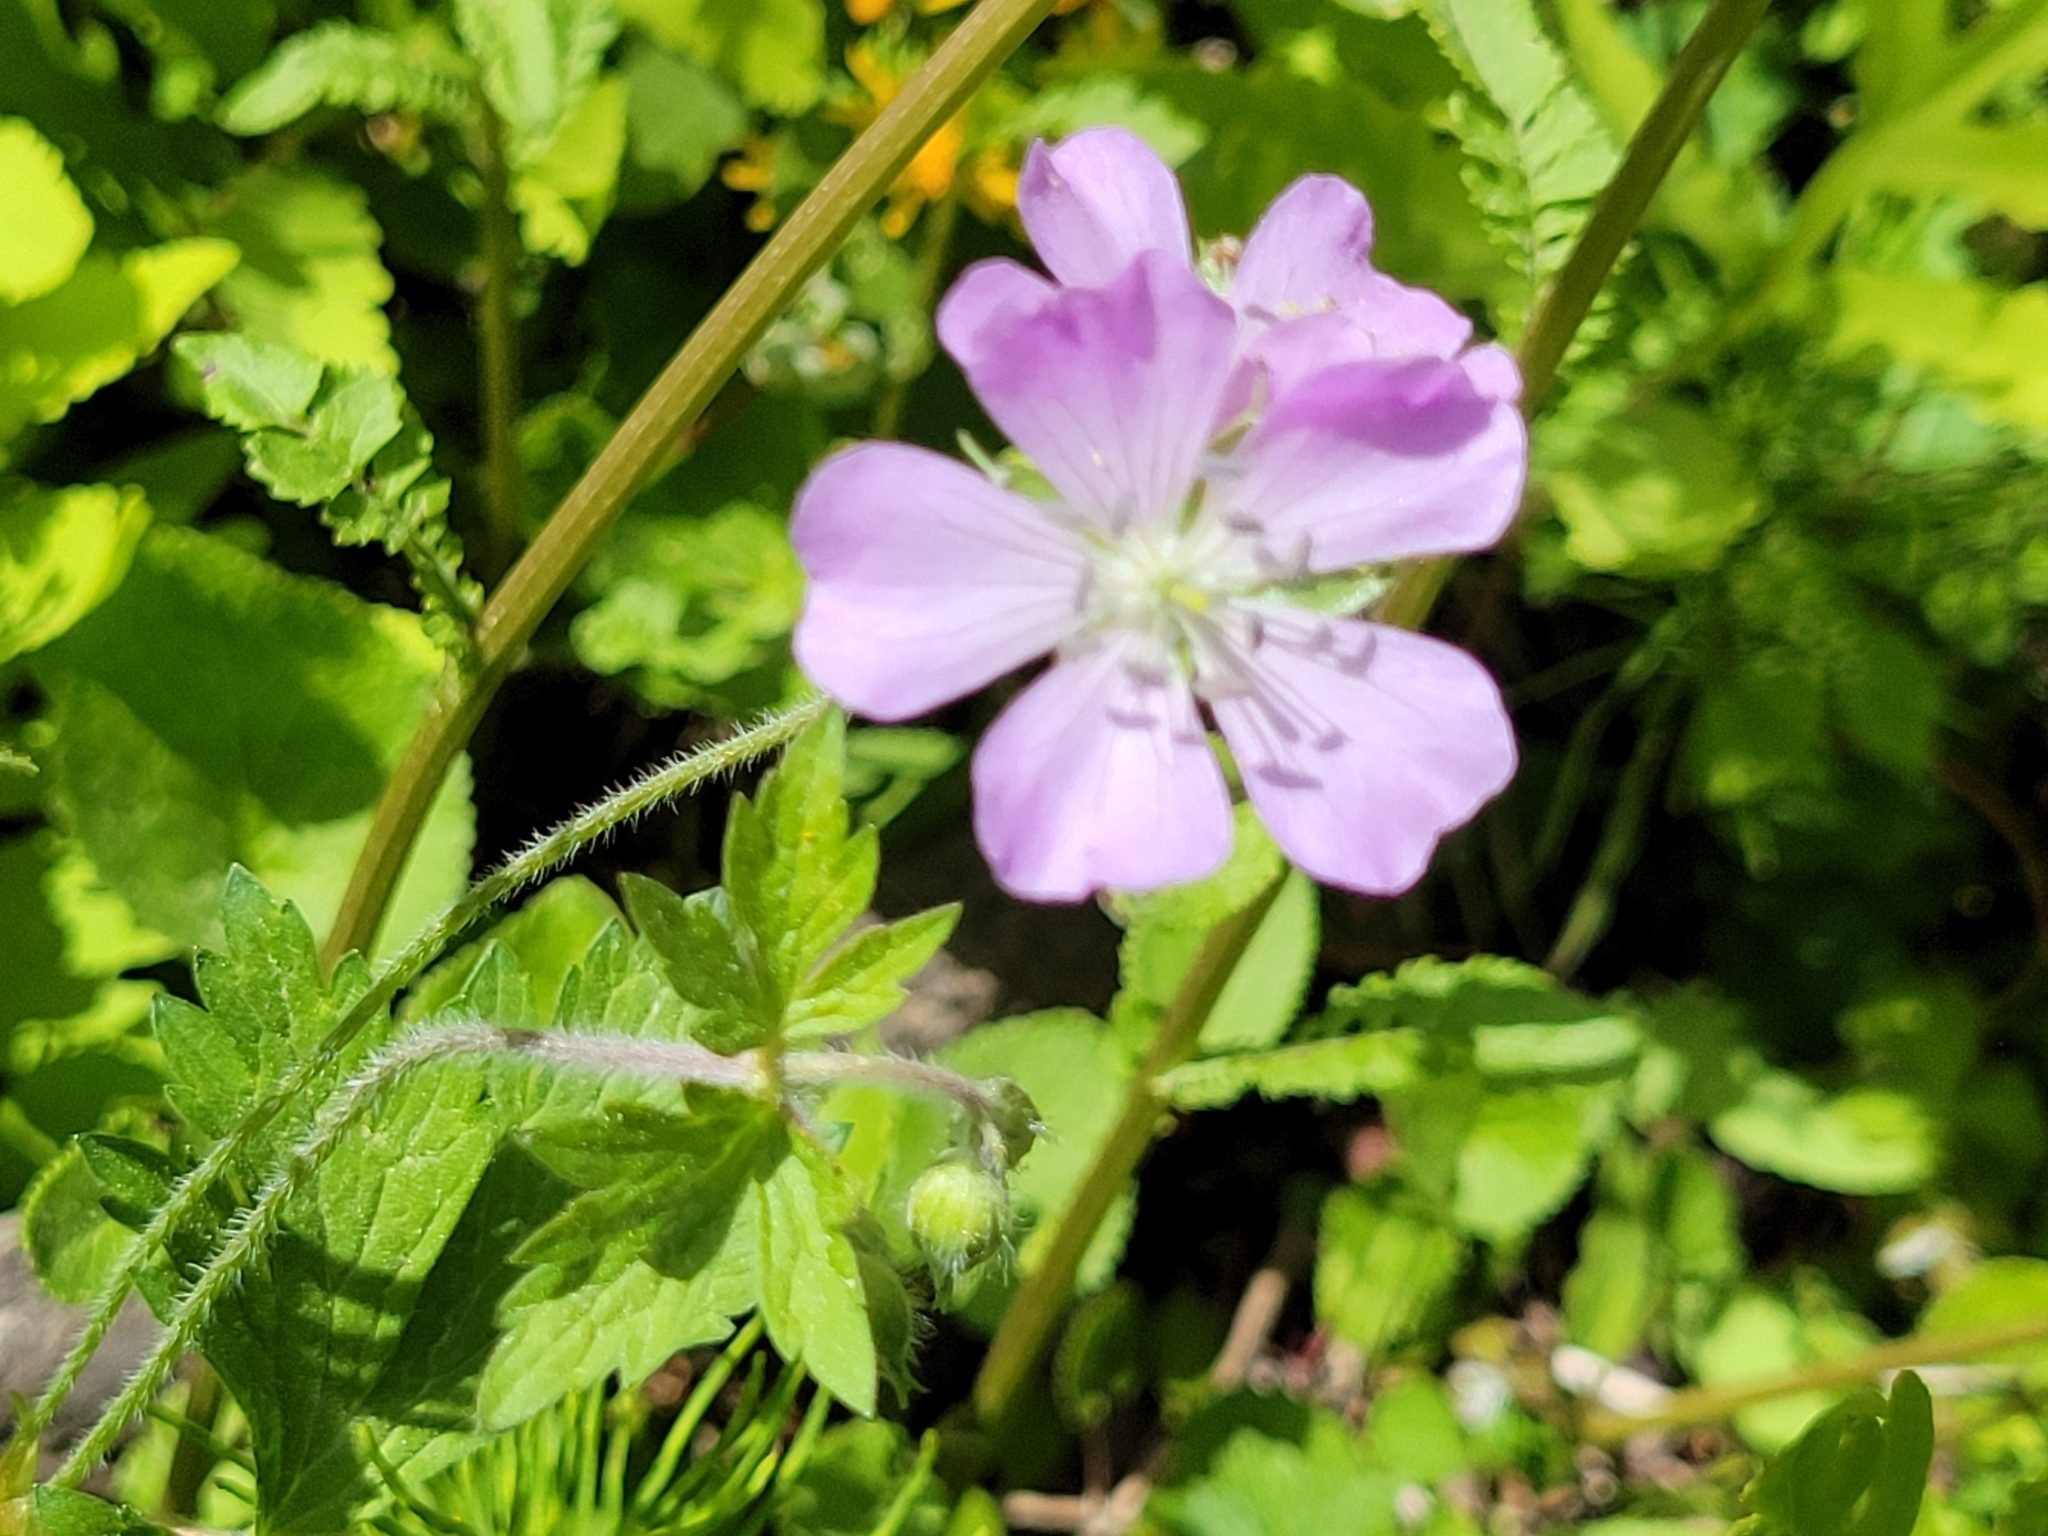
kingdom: Plantae
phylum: Tracheophyta
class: Magnoliopsida
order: Geraniales
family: Geraniaceae
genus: Geranium
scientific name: Geranium maculatum
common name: Spotted geranium
